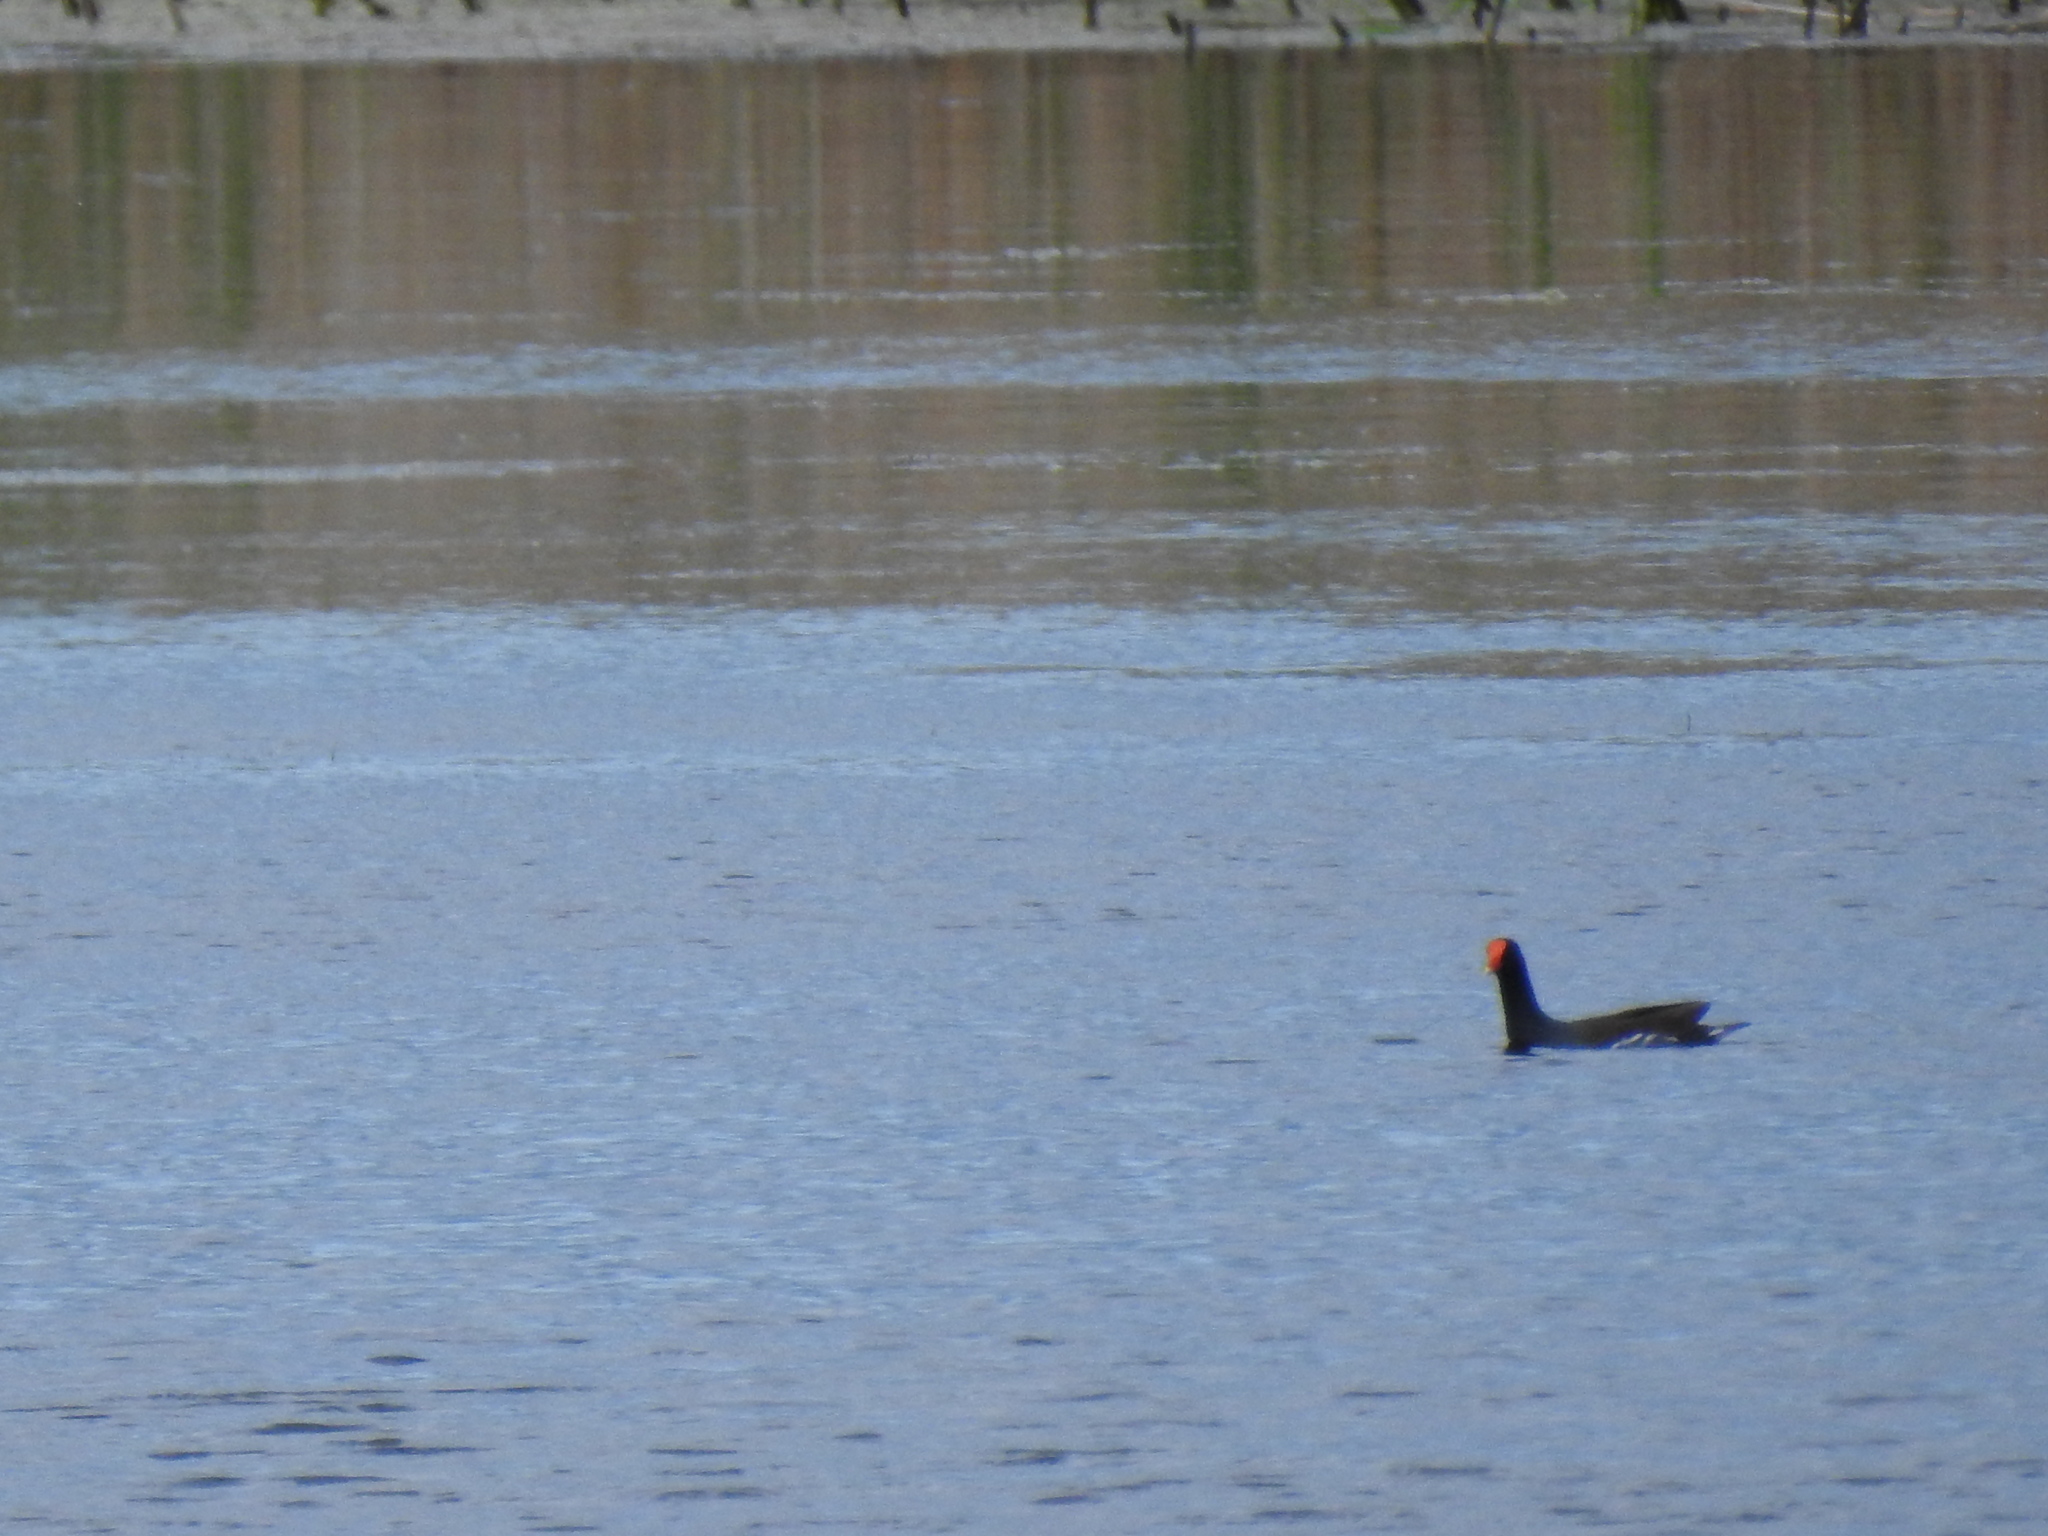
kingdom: Animalia
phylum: Chordata
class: Aves
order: Gruiformes
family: Rallidae
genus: Gallinula
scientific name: Gallinula chloropus
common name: Common moorhen
